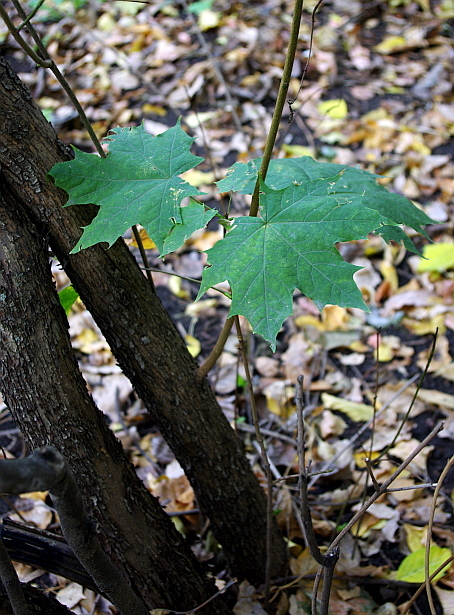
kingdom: Plantae
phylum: Tracheophyta
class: Magnoliopsida
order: Sapindales
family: Sapindaceae
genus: Acer
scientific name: Acer platanoides
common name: Norway maple
